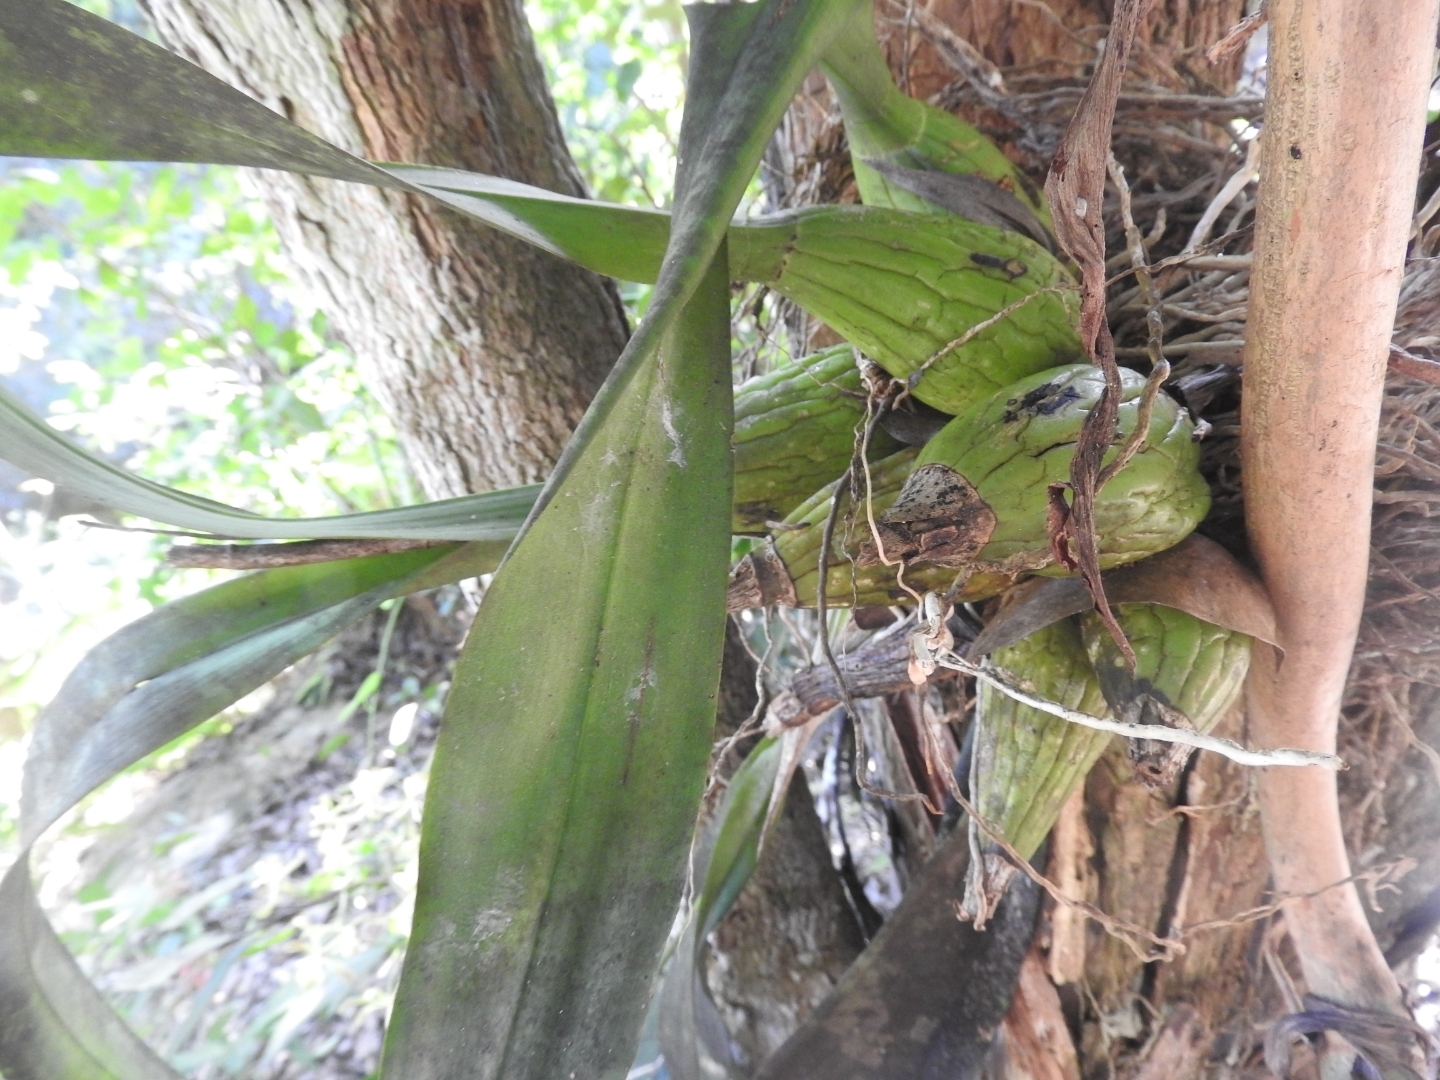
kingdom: Plantae
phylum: Tracheophyta
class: Liliopsida
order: Asparagales
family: Orchidaceae
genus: Encyclia
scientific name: Encyclia alata
